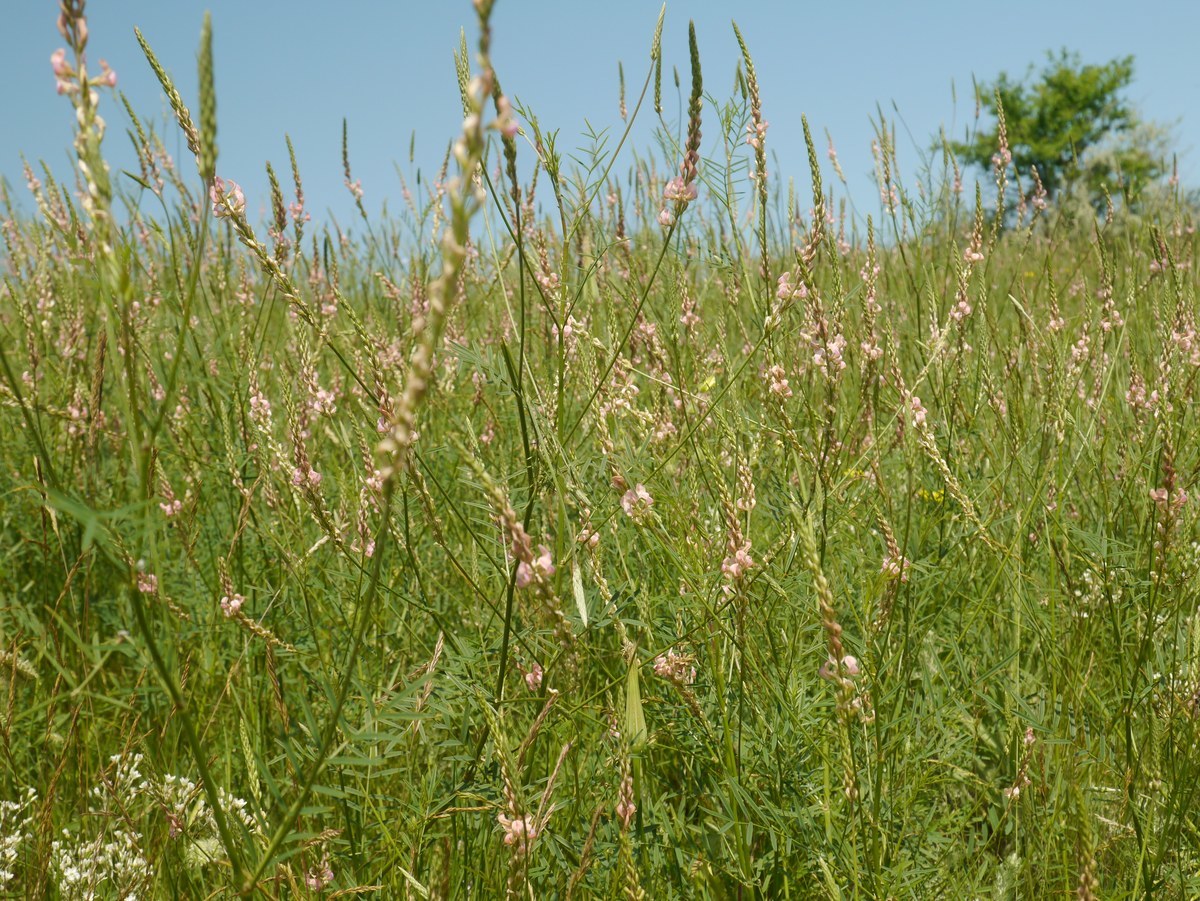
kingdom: Plantae
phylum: Tracheophyta
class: Magnoliopsida
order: Fabales
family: Fabaceae
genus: Onobrychis
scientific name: Onobrychis arenaria
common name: Sand esparcet
